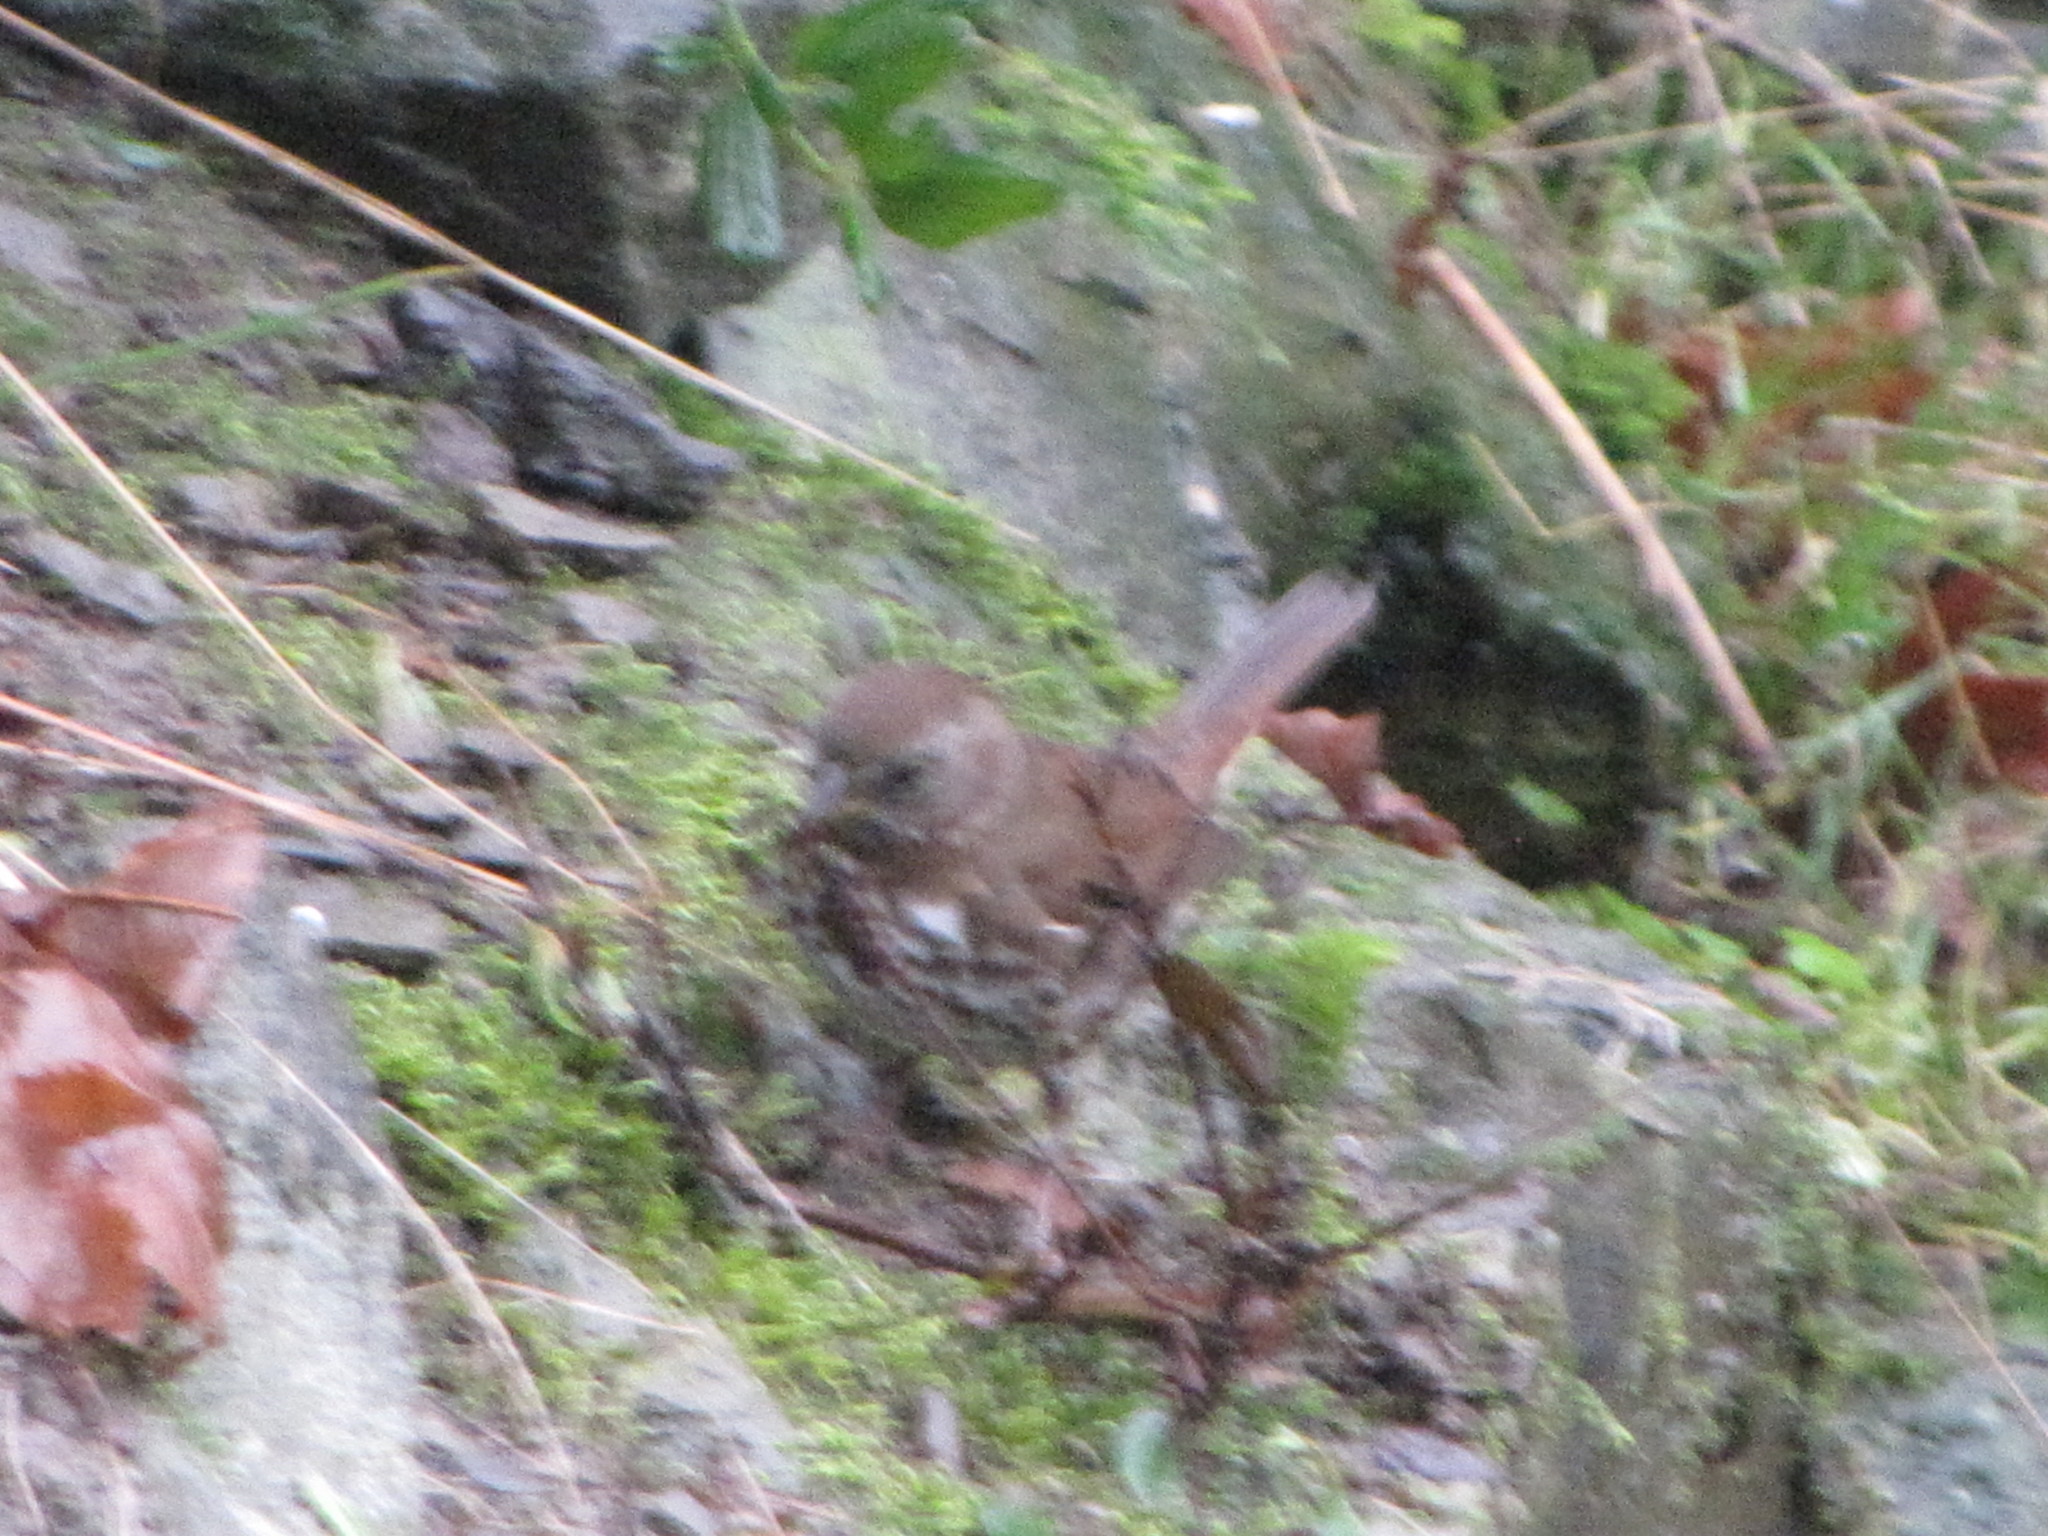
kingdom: Animalia
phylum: Chordata
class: Aves
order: Passeriformes
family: Passerellidae
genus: Passerella
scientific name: Passerella iliaca
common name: Fox sparrow
